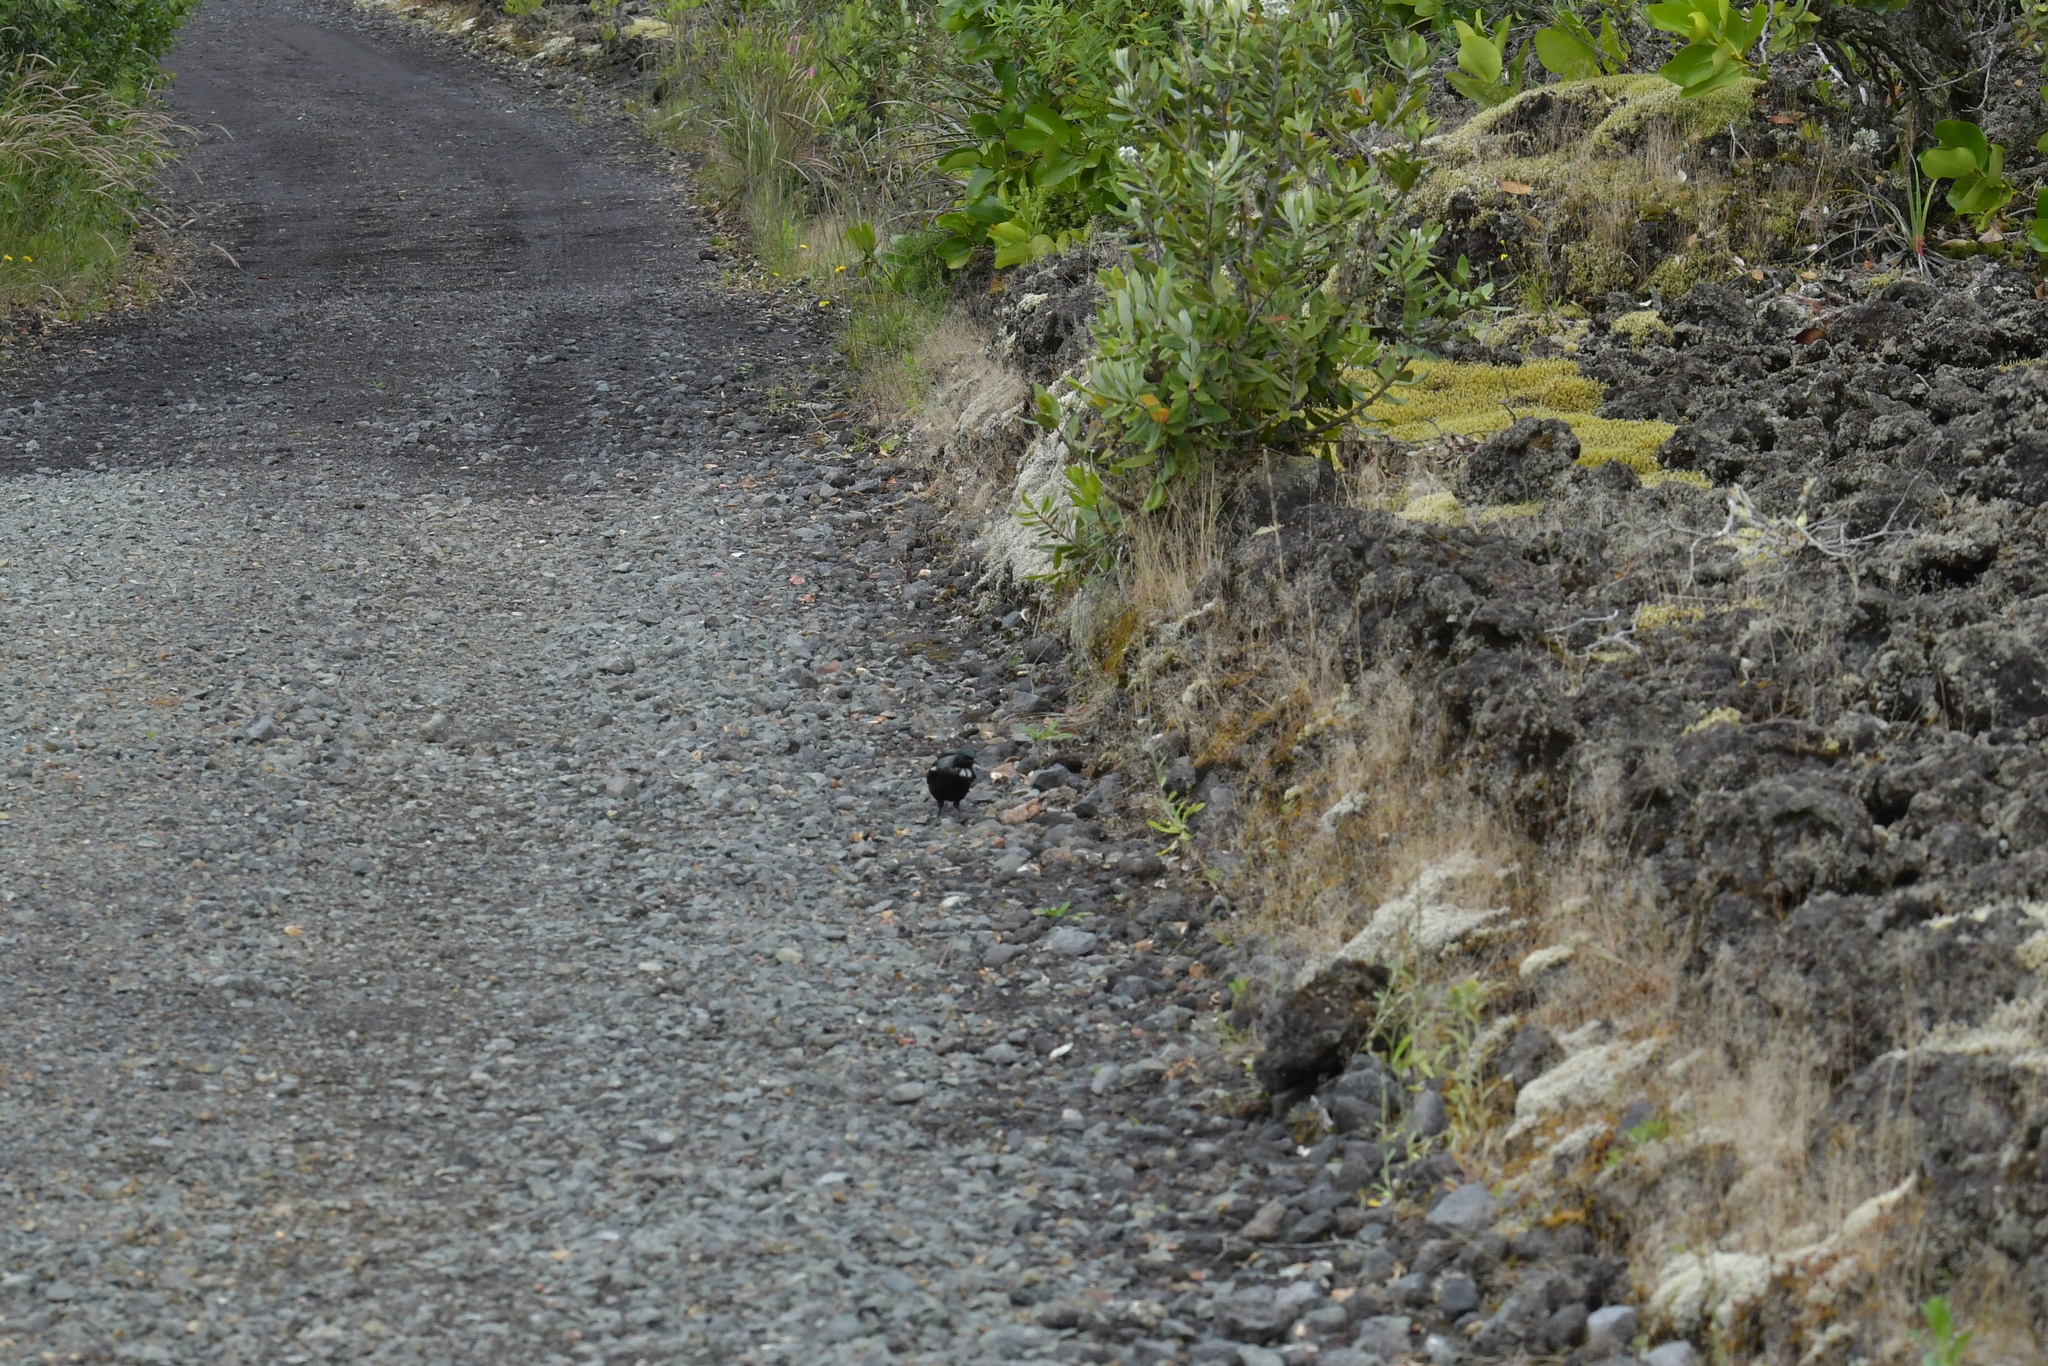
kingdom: Animalia
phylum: Chordata
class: Aves
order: Passeriformes
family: Meliphagidae
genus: Prosthemadera
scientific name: Prosthemadera novaeseelandiae
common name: Tui
